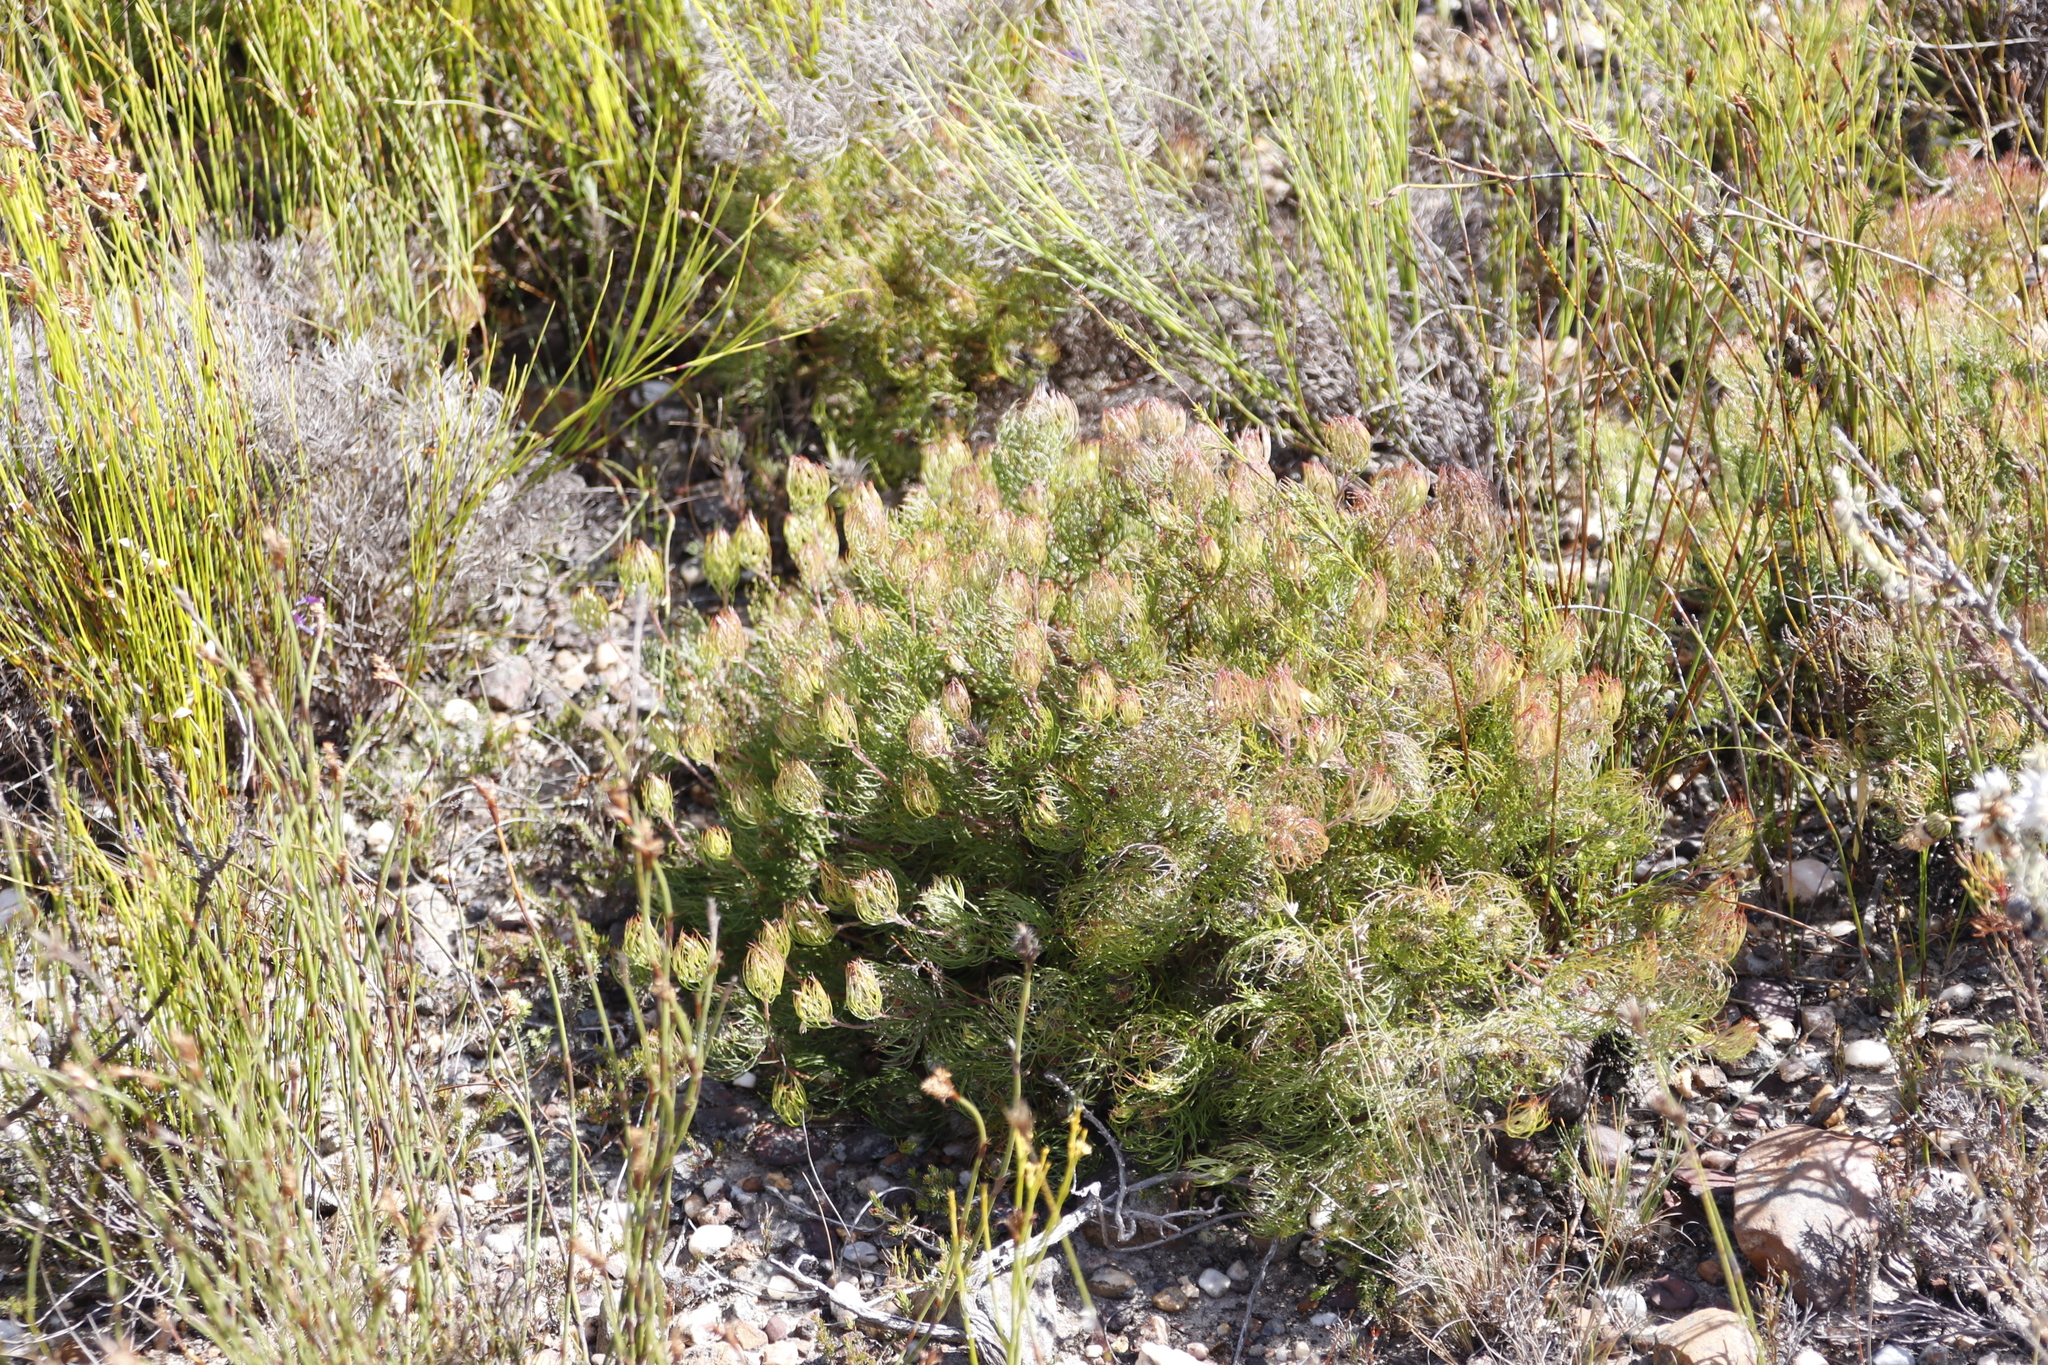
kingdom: Plantae
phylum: Tracheophyta
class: Magnoliopsida
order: Proteales
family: Proteaceae
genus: Serruria
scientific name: Serruria inconspicua
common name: Cryptic spiderhead
